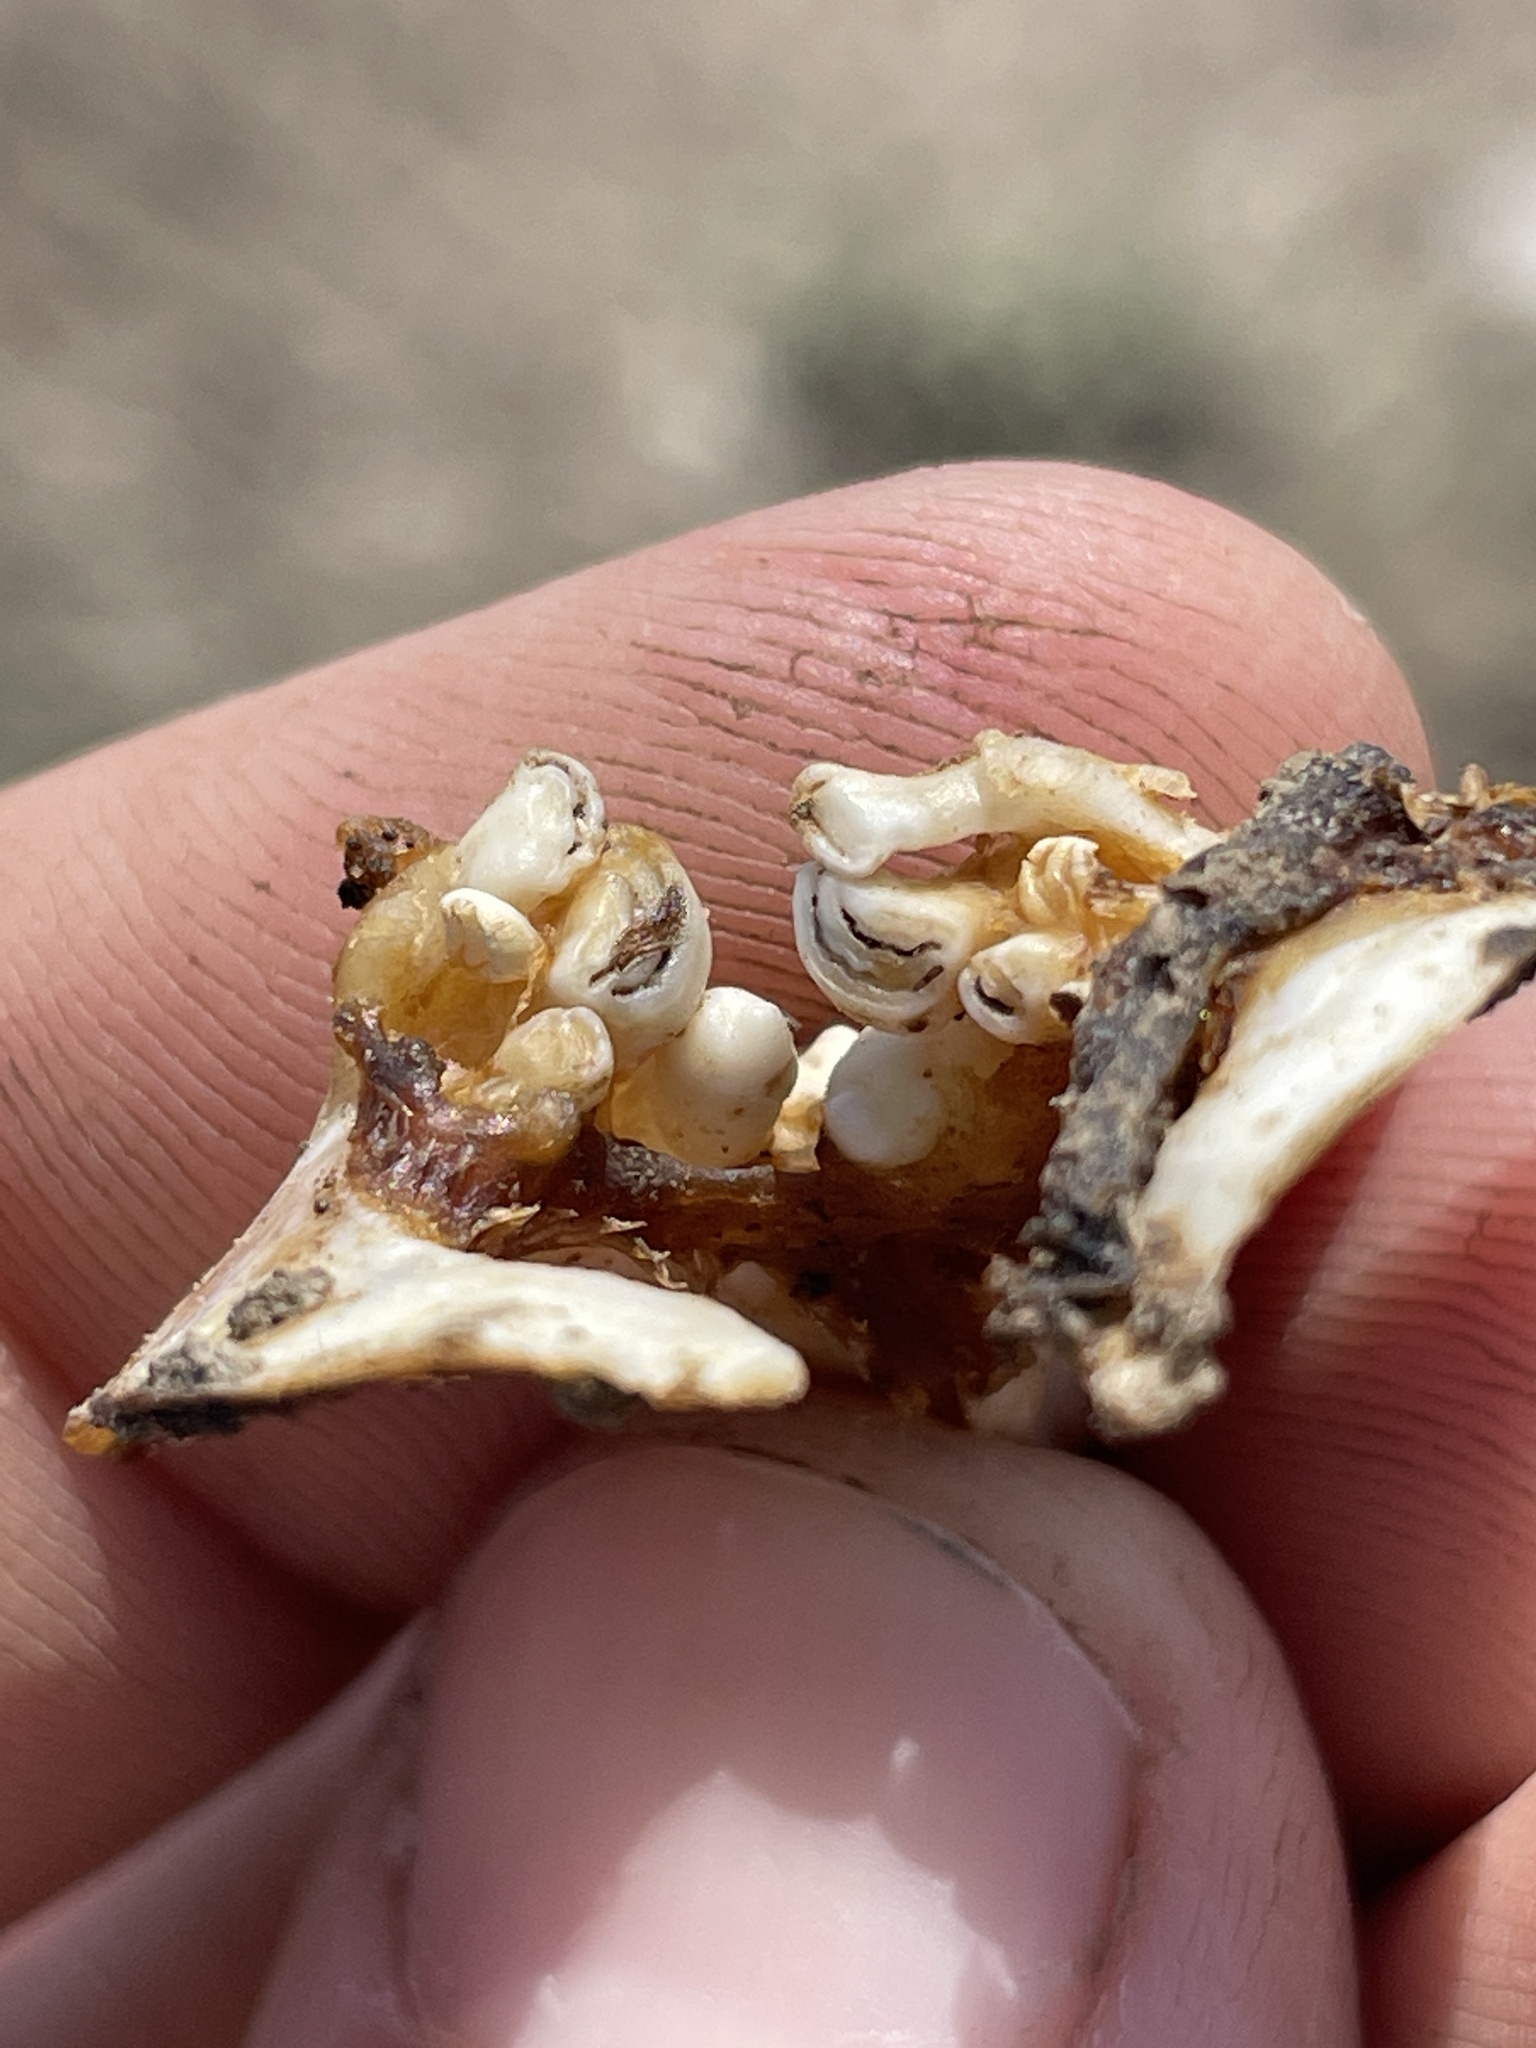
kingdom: Animalia
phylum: Chordata
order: Cypriniformes
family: Cyprinidae
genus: Cyprinus
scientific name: Cyprinus carpio
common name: Common carp
